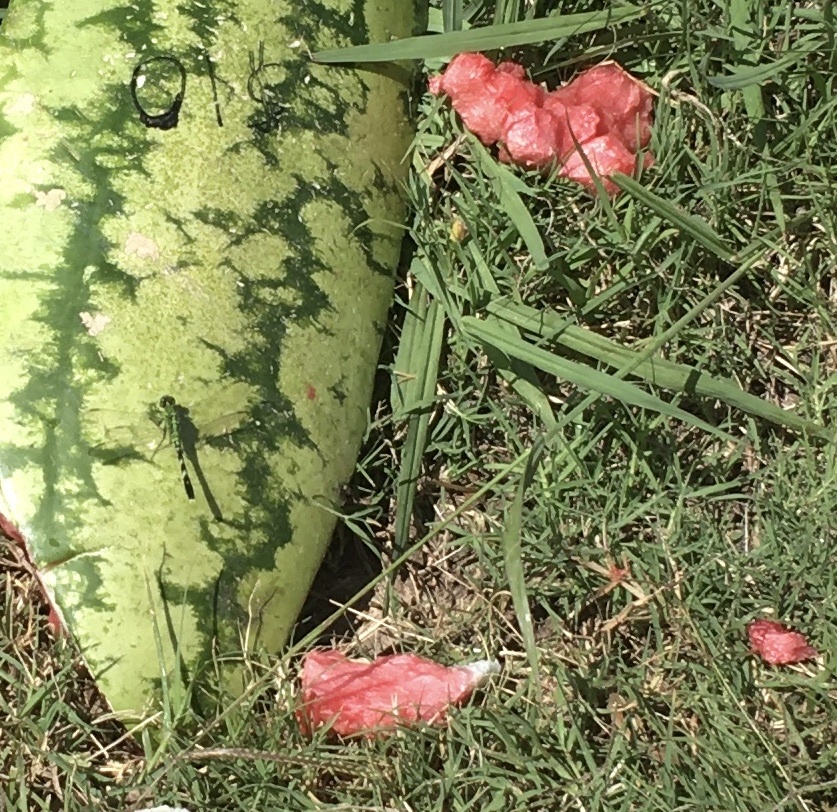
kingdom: Animalia
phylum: Arthropoda
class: Insecta
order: Odonata
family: Libellulidae
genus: Erythemis
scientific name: Erythemis simplicicollis
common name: Eastern pondhawk
